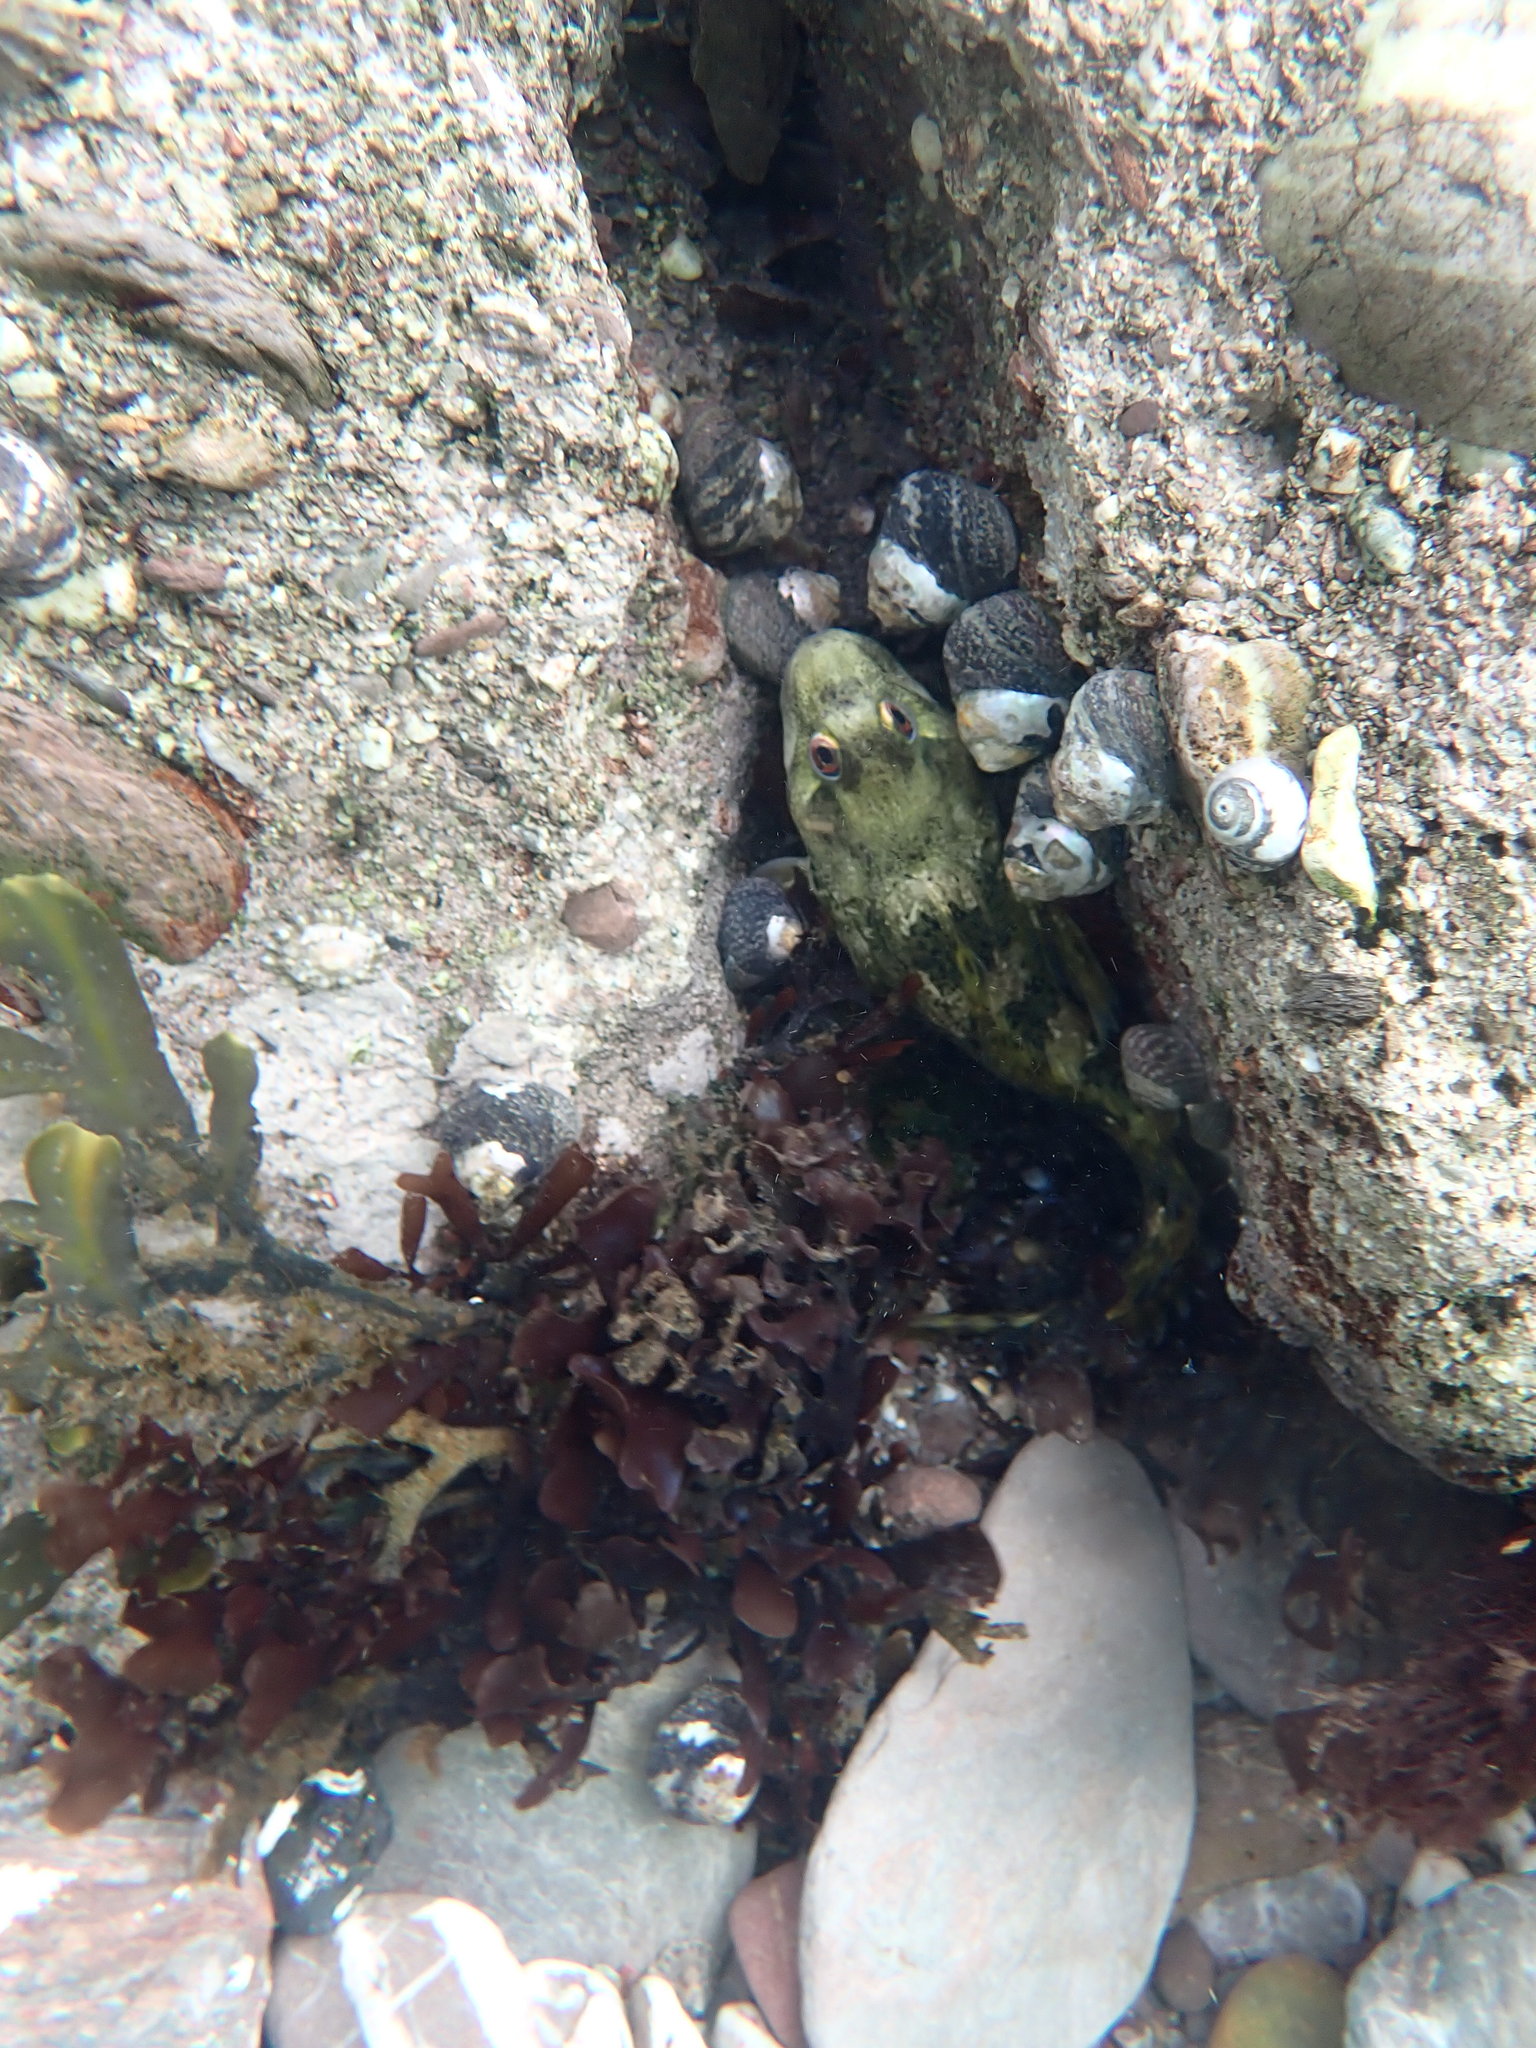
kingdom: Animalia
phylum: Chordata
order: Perciformes
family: Blenniidae
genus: Lipophrys
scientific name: Lipophrys pholis
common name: Shanny
